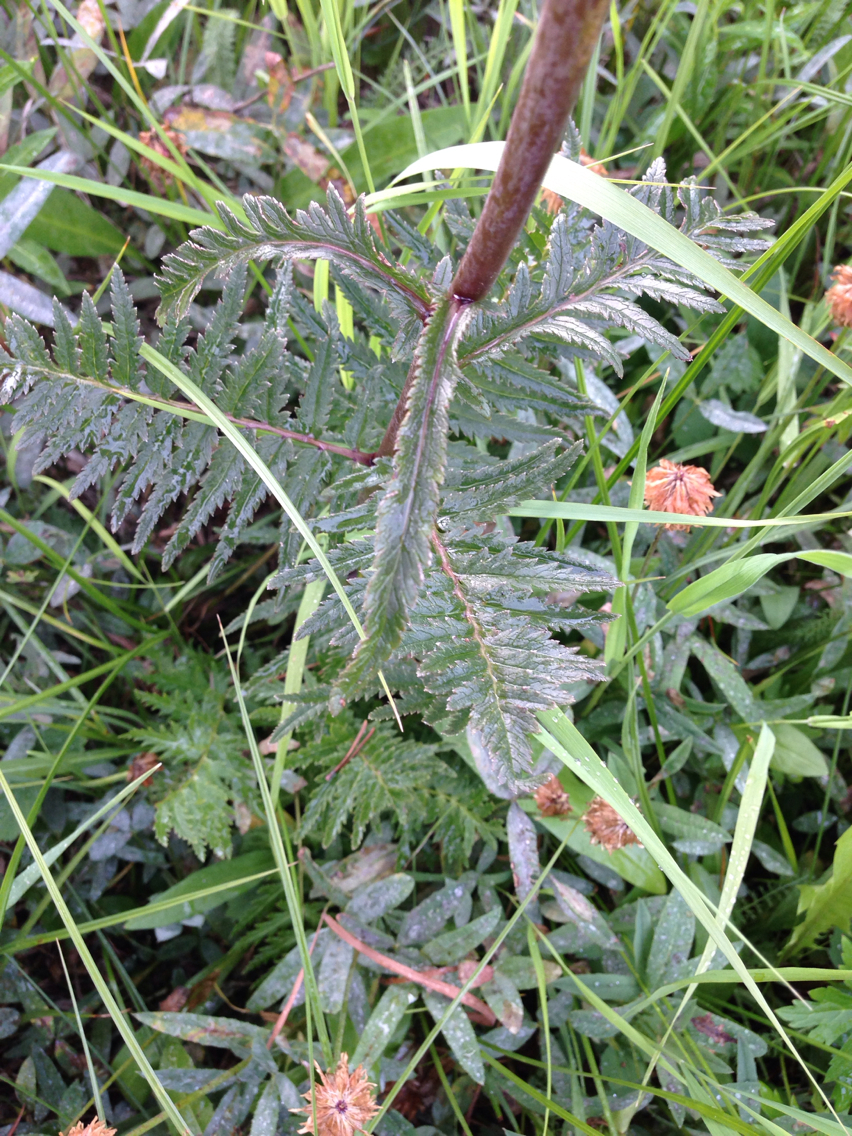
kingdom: Plantae
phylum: Tracheophyta
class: Magnoliopsida
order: Lamiales
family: Orobanchaceae
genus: Pedicularis
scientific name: Pedicularis bracteosa
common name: Bracted lousewort
